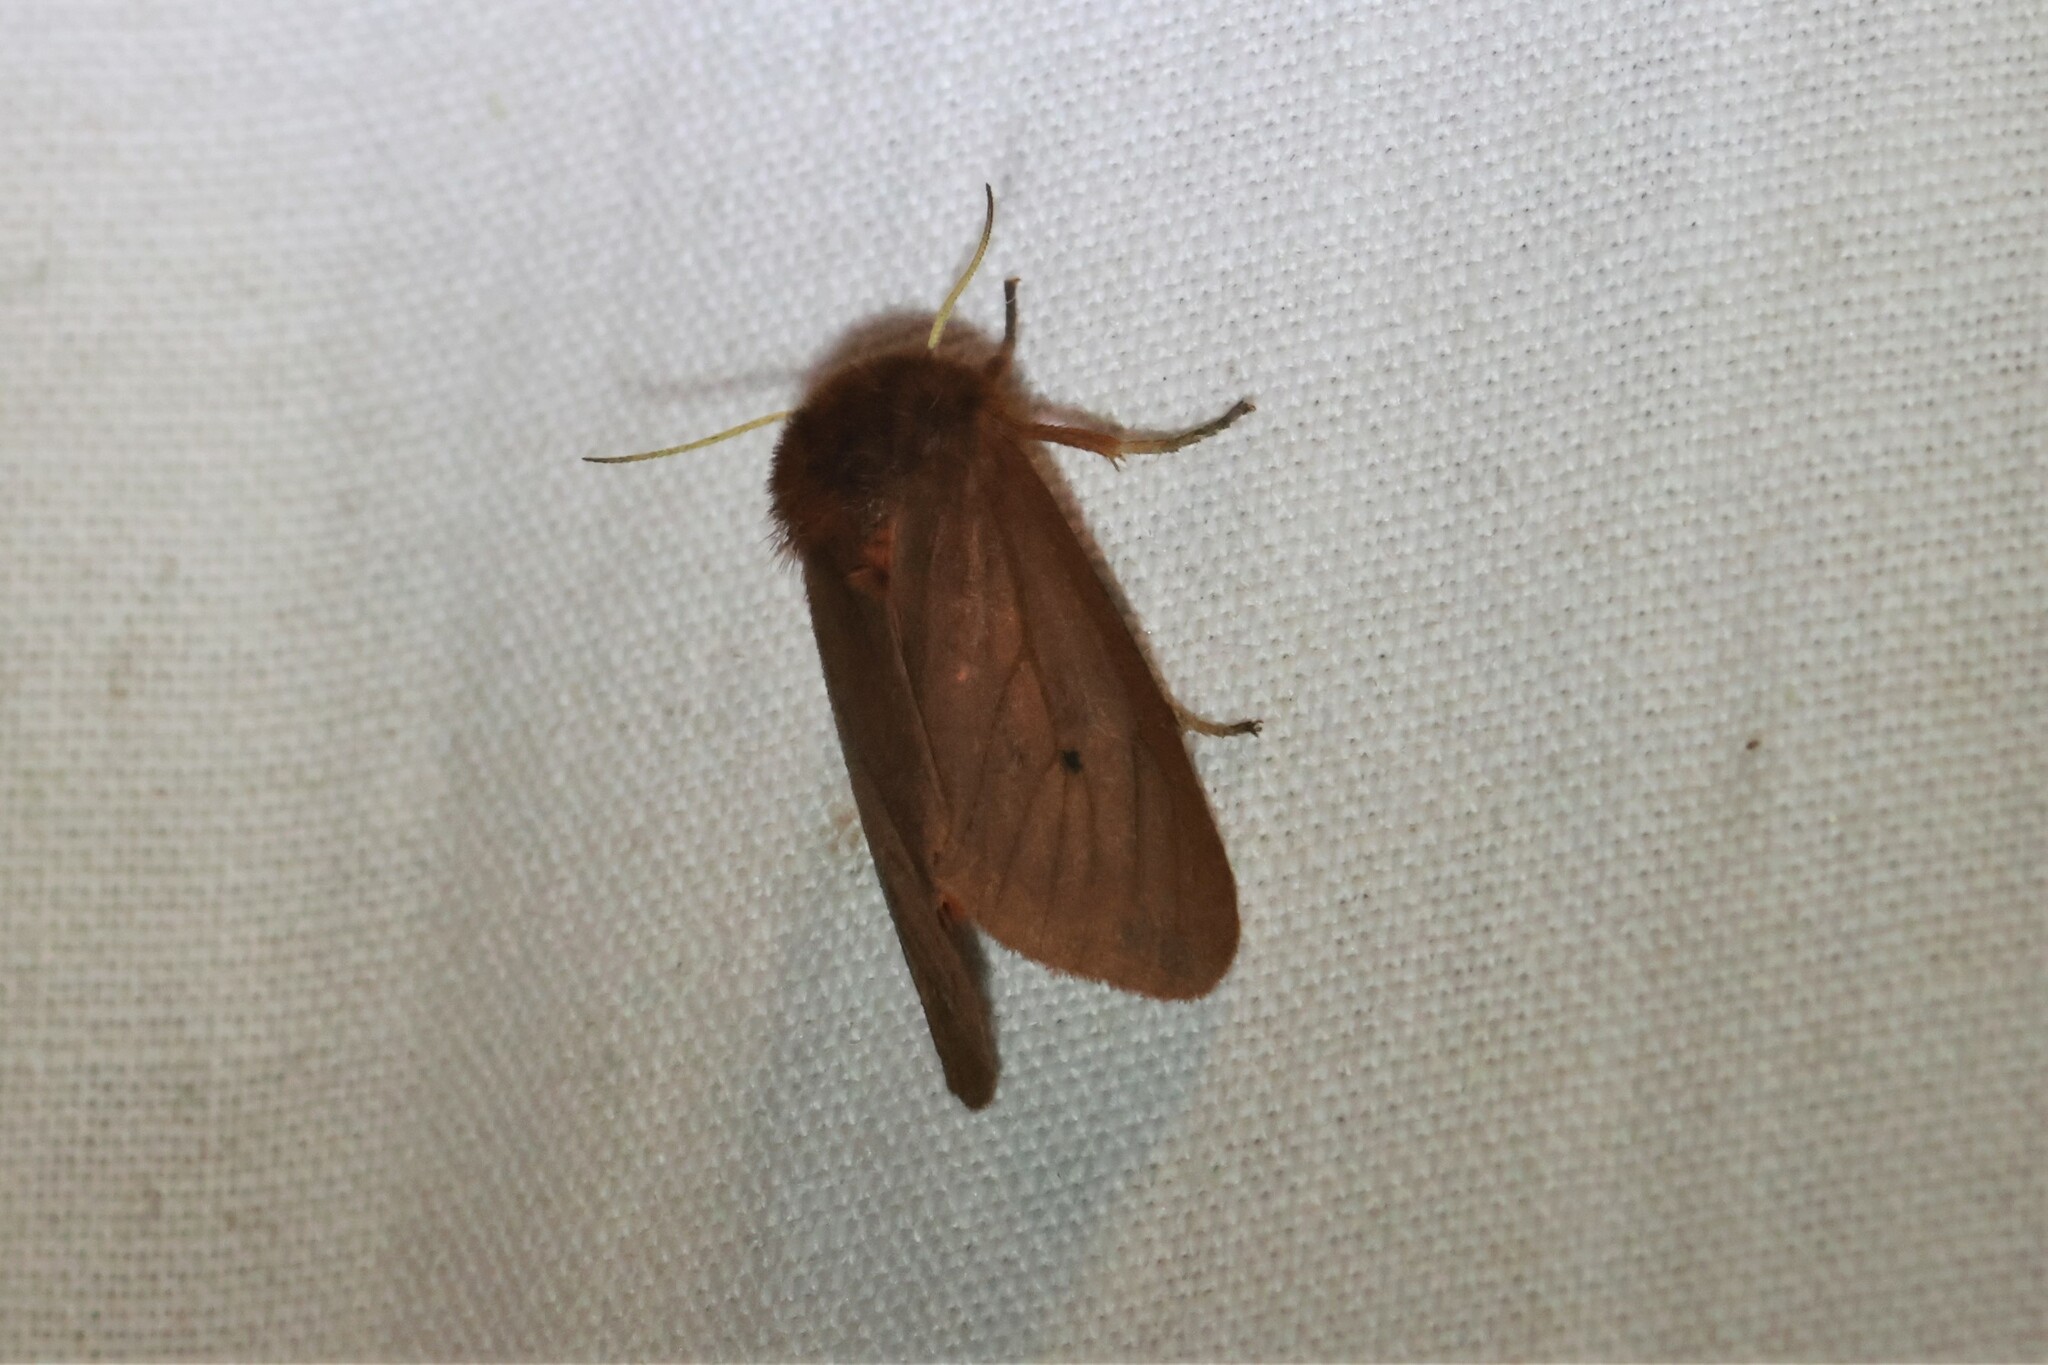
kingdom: Animalia
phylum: Arthropoda
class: Insecta
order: Lepidoptera
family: Erebidae
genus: Phragmatobia
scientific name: Phragmatobia fuliginosa
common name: Ruby tiger
